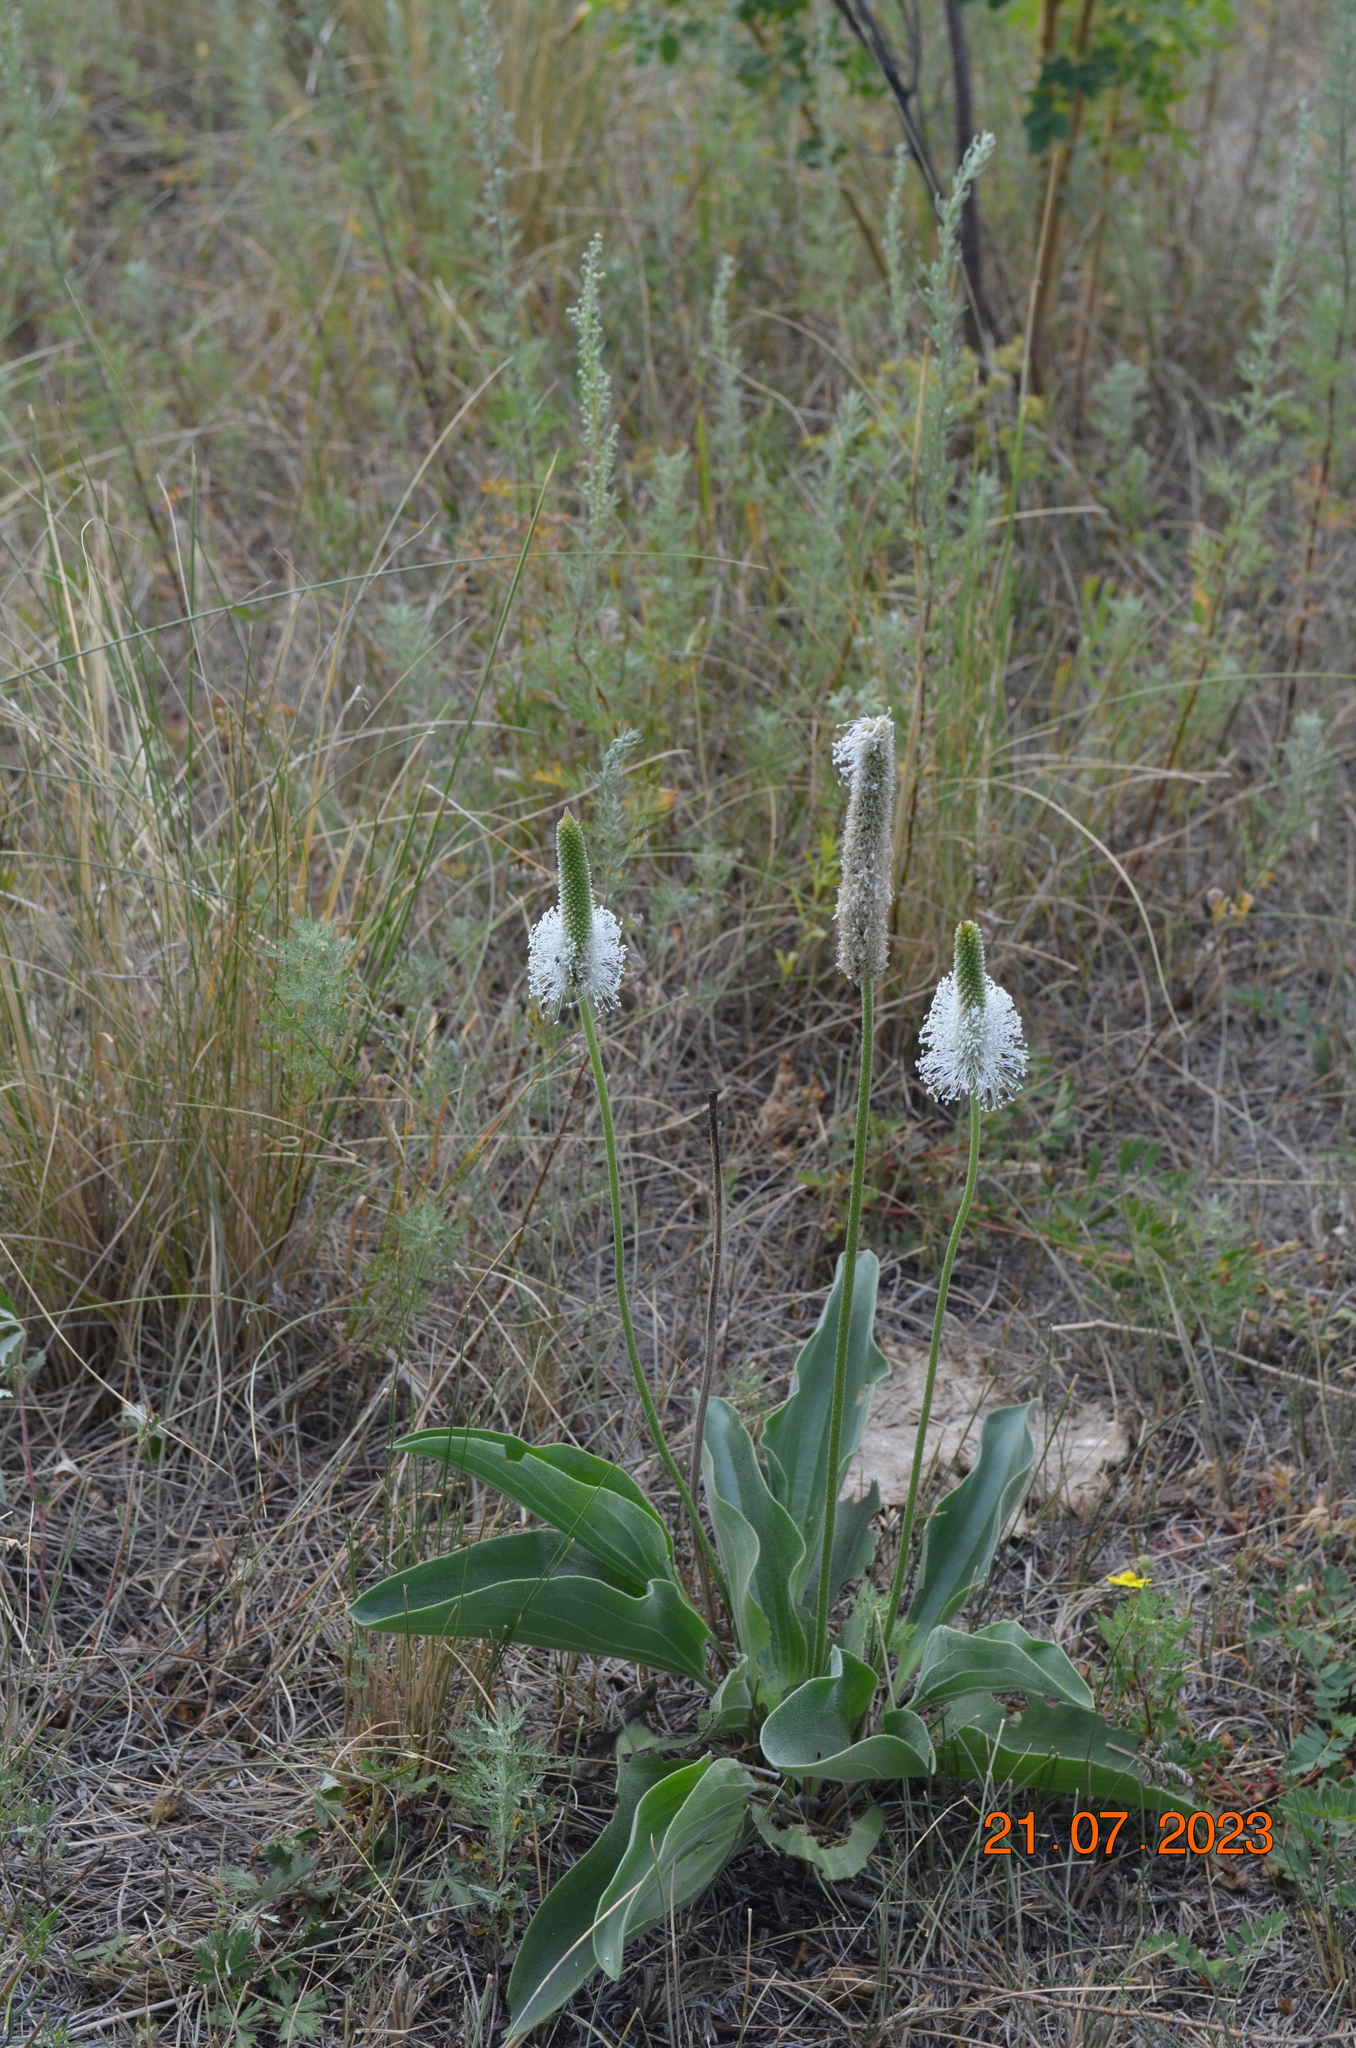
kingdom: Plantae
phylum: Tracheophyta
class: Magnoliopsida
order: Lamiales
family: Plantaginaceae
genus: Plantago
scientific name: Plantago media
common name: Hoary plantain
